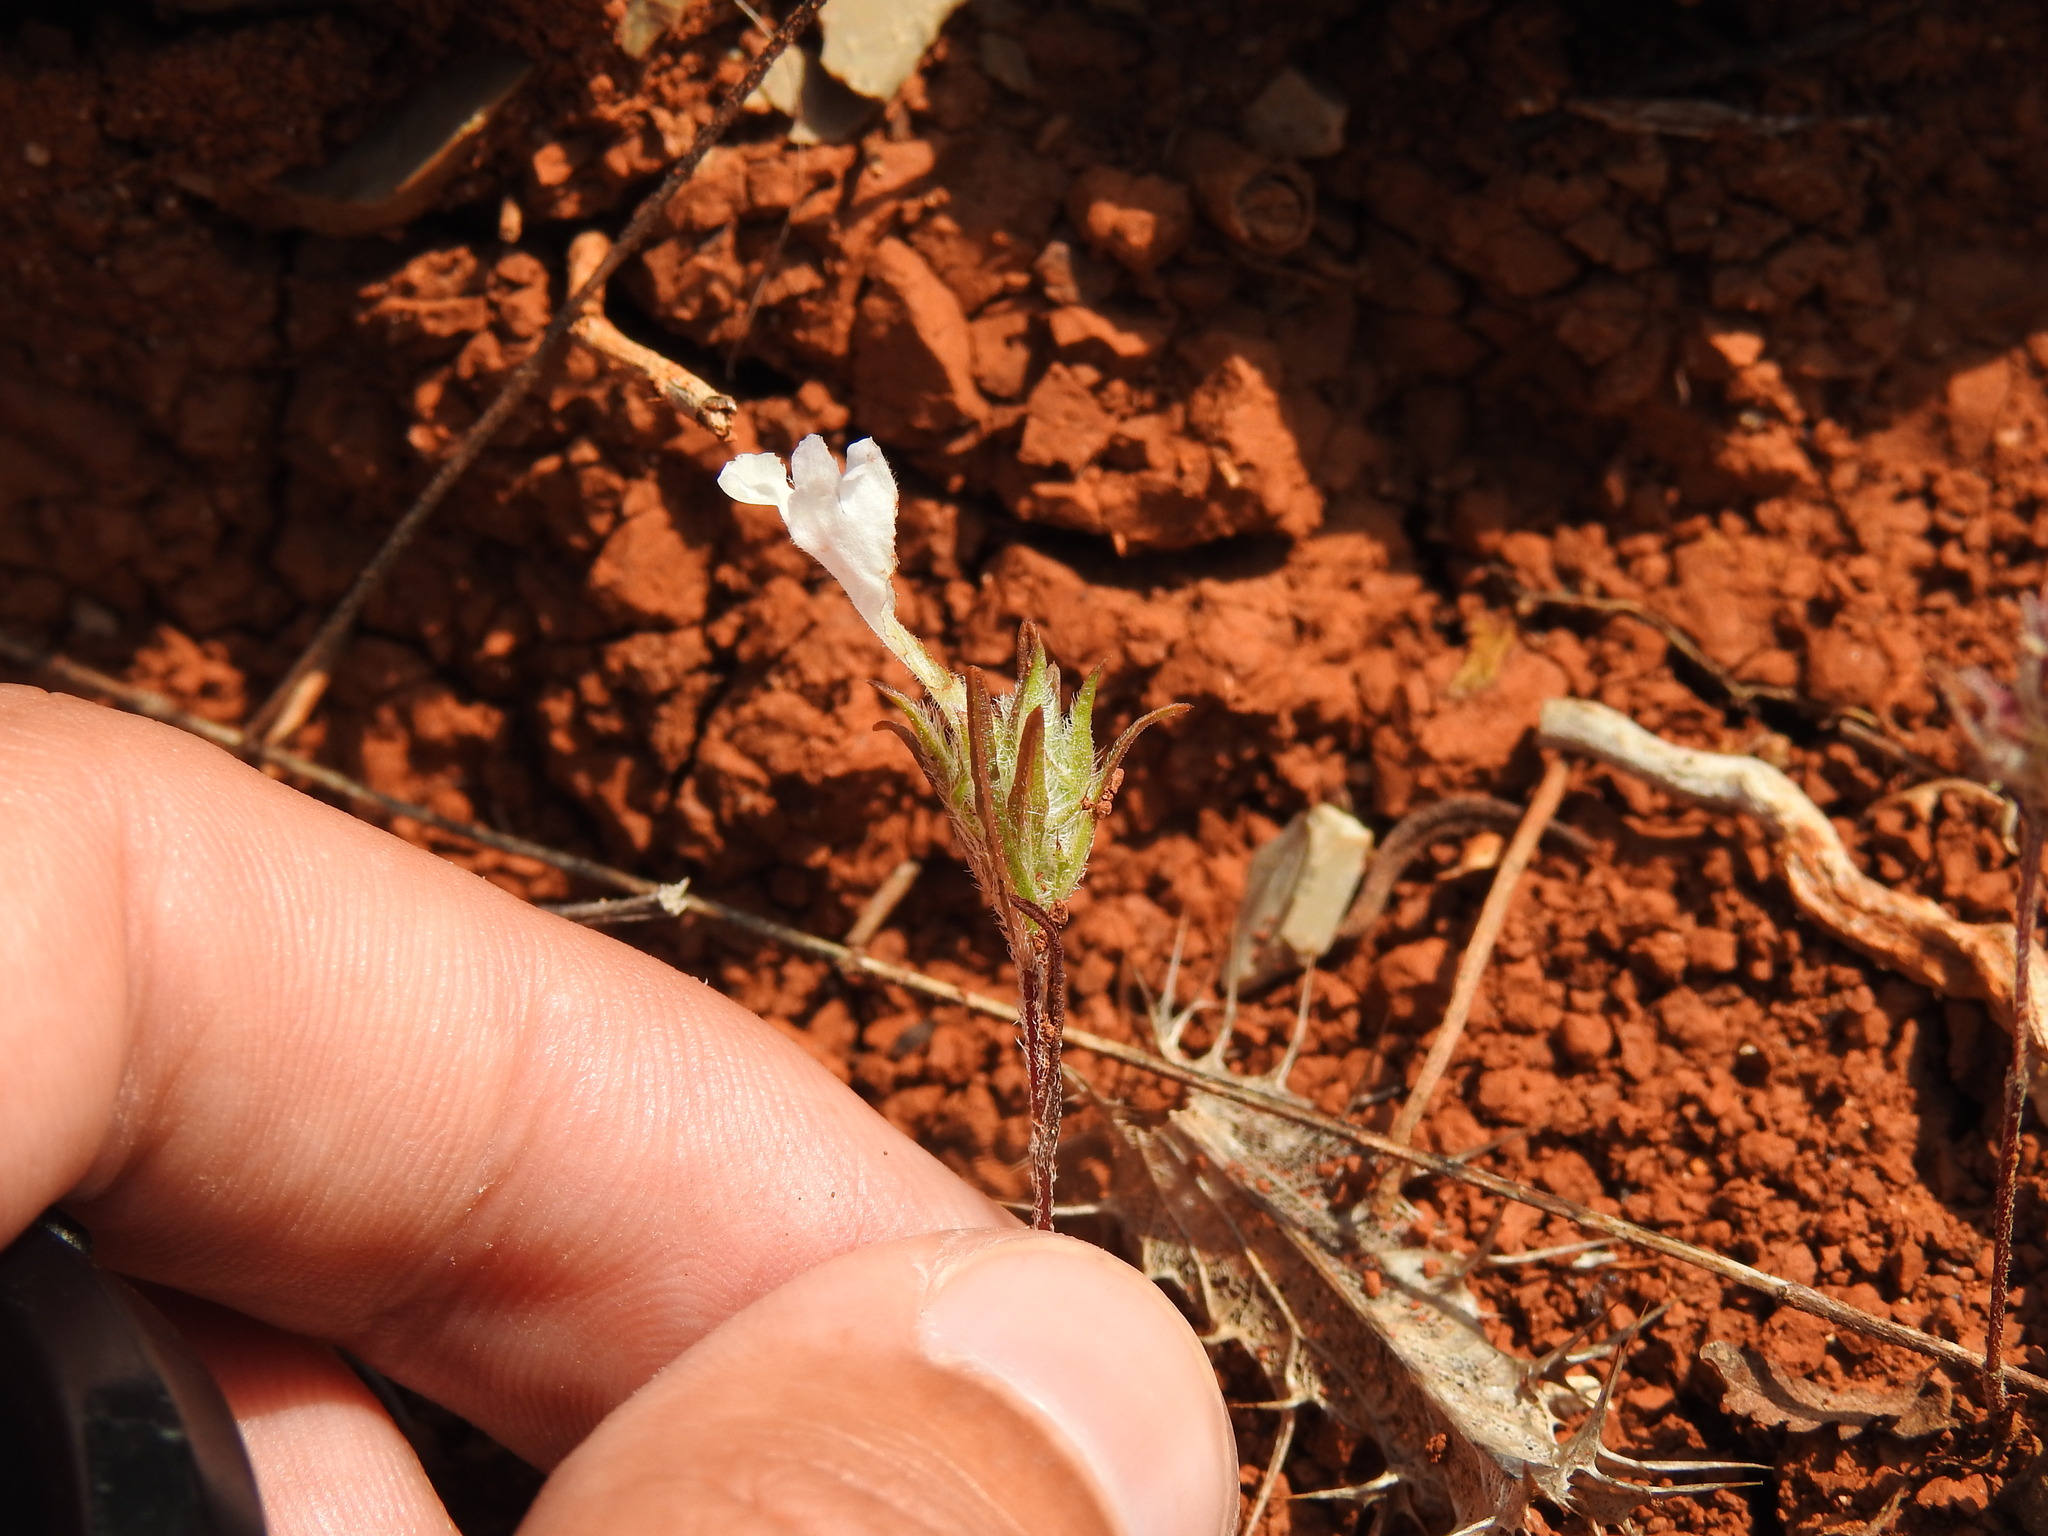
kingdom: Plantae
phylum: Tracheophyta
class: Magnoliopsida
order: Lamiales
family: Lamiaceae
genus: Cleonia
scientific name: Cleonia lusitanica
